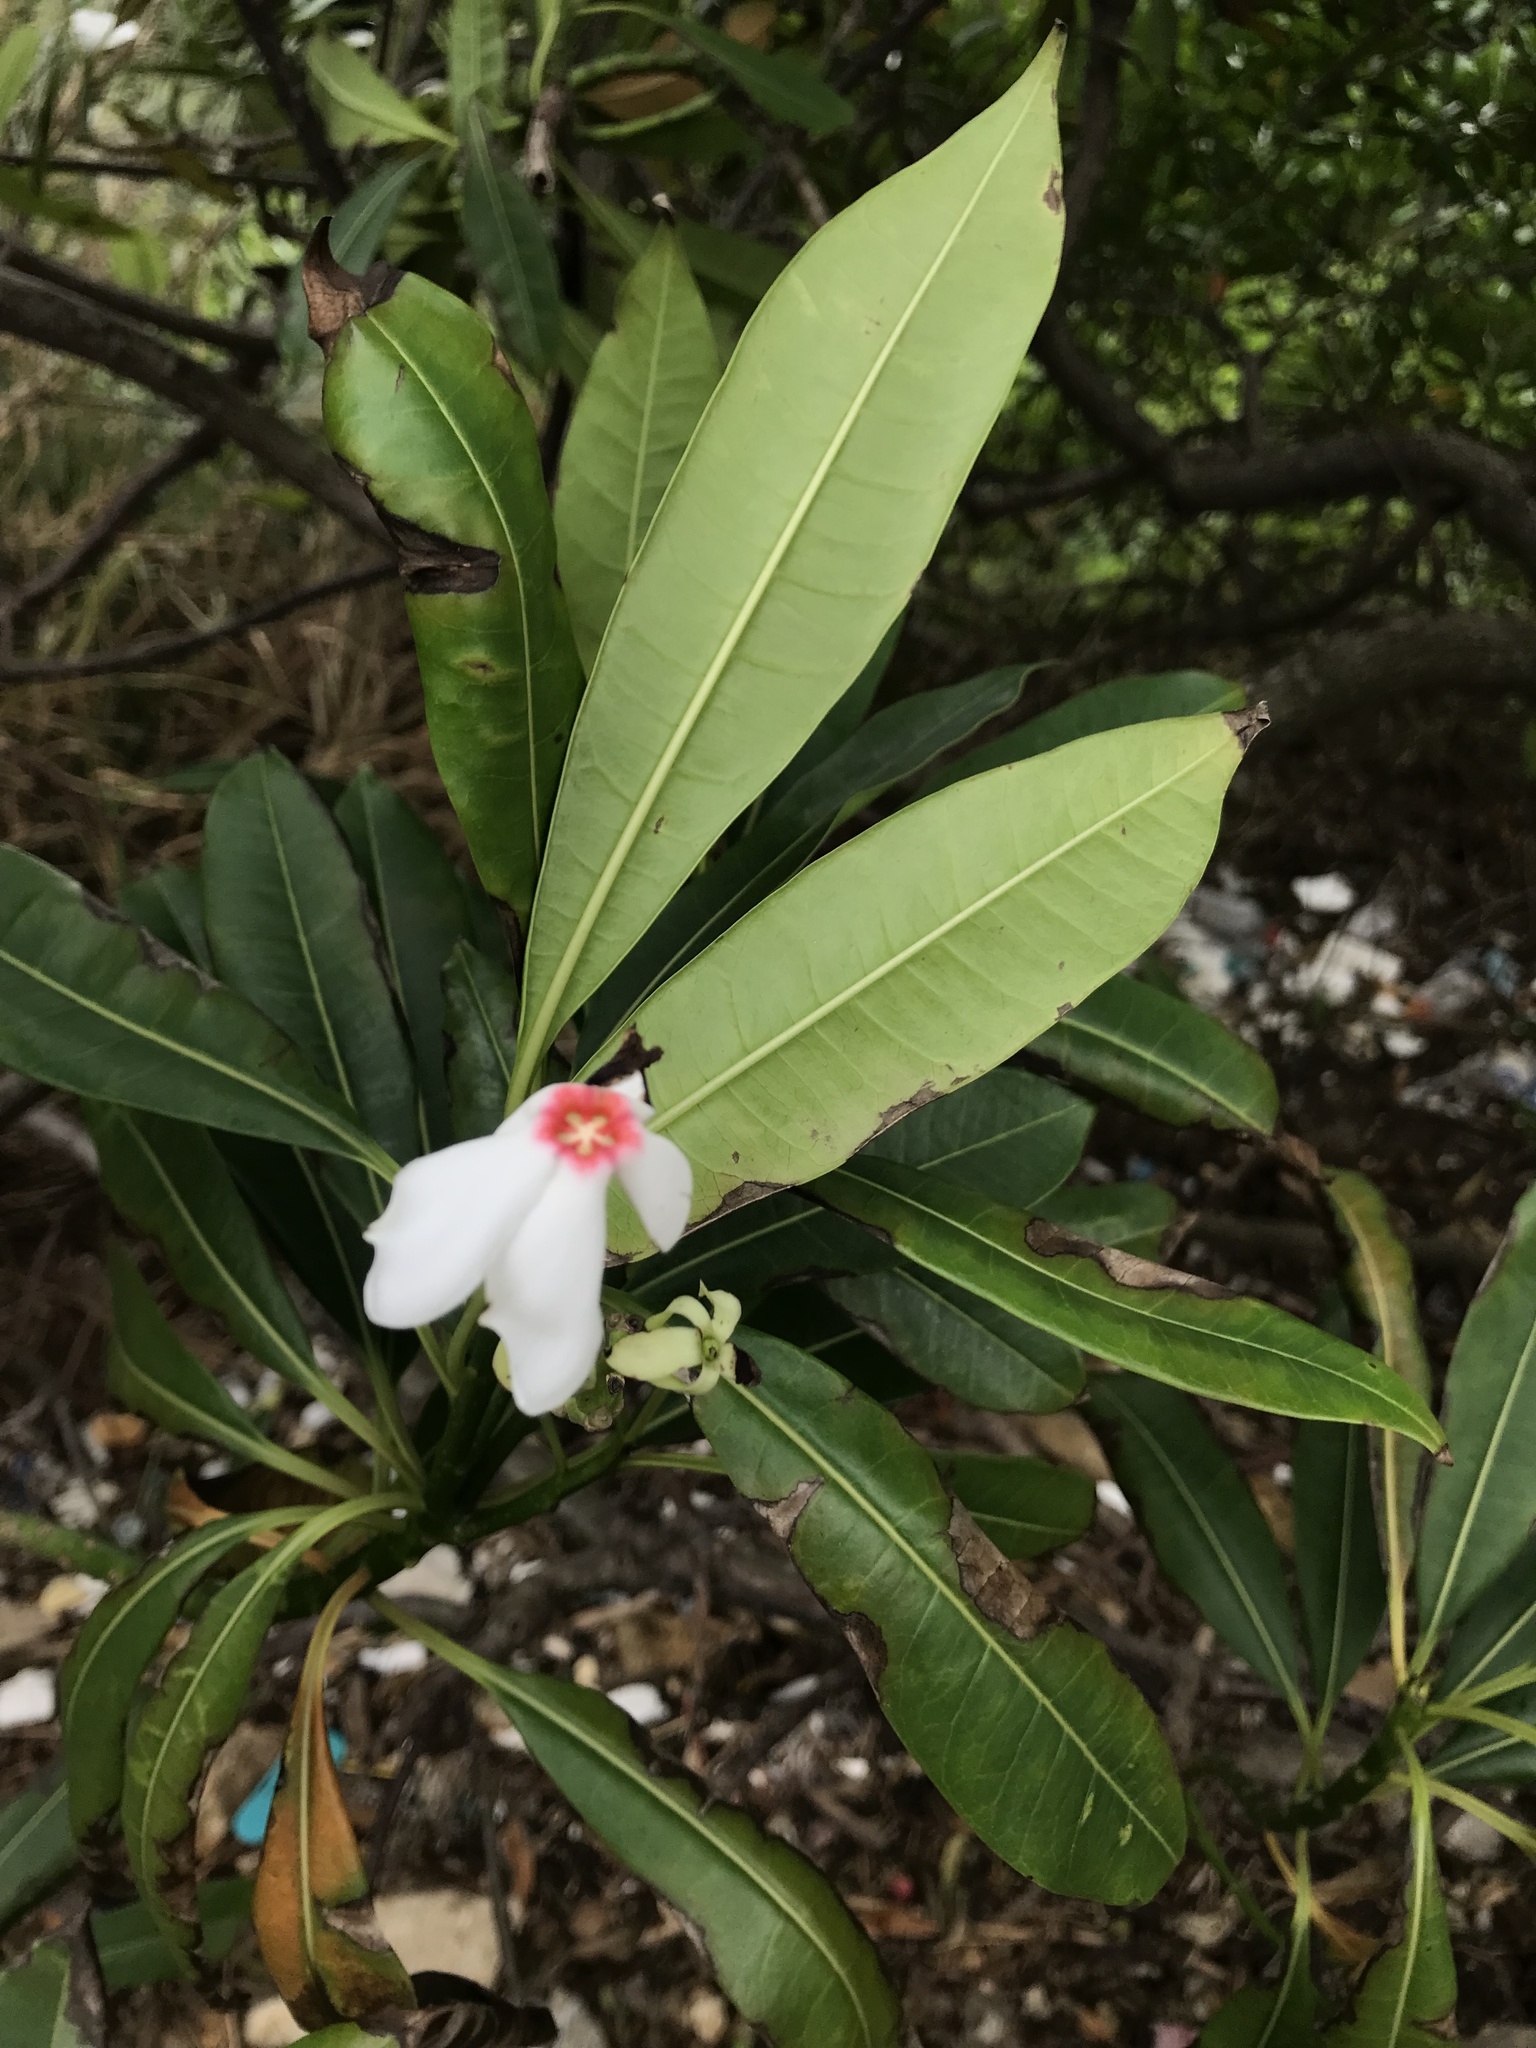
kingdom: Plantae
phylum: Tracheophyta
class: Magnoliopsida
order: Gentianales
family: Apocynaceae
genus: Cerbera
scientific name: Cerbera manghas
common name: Reva
